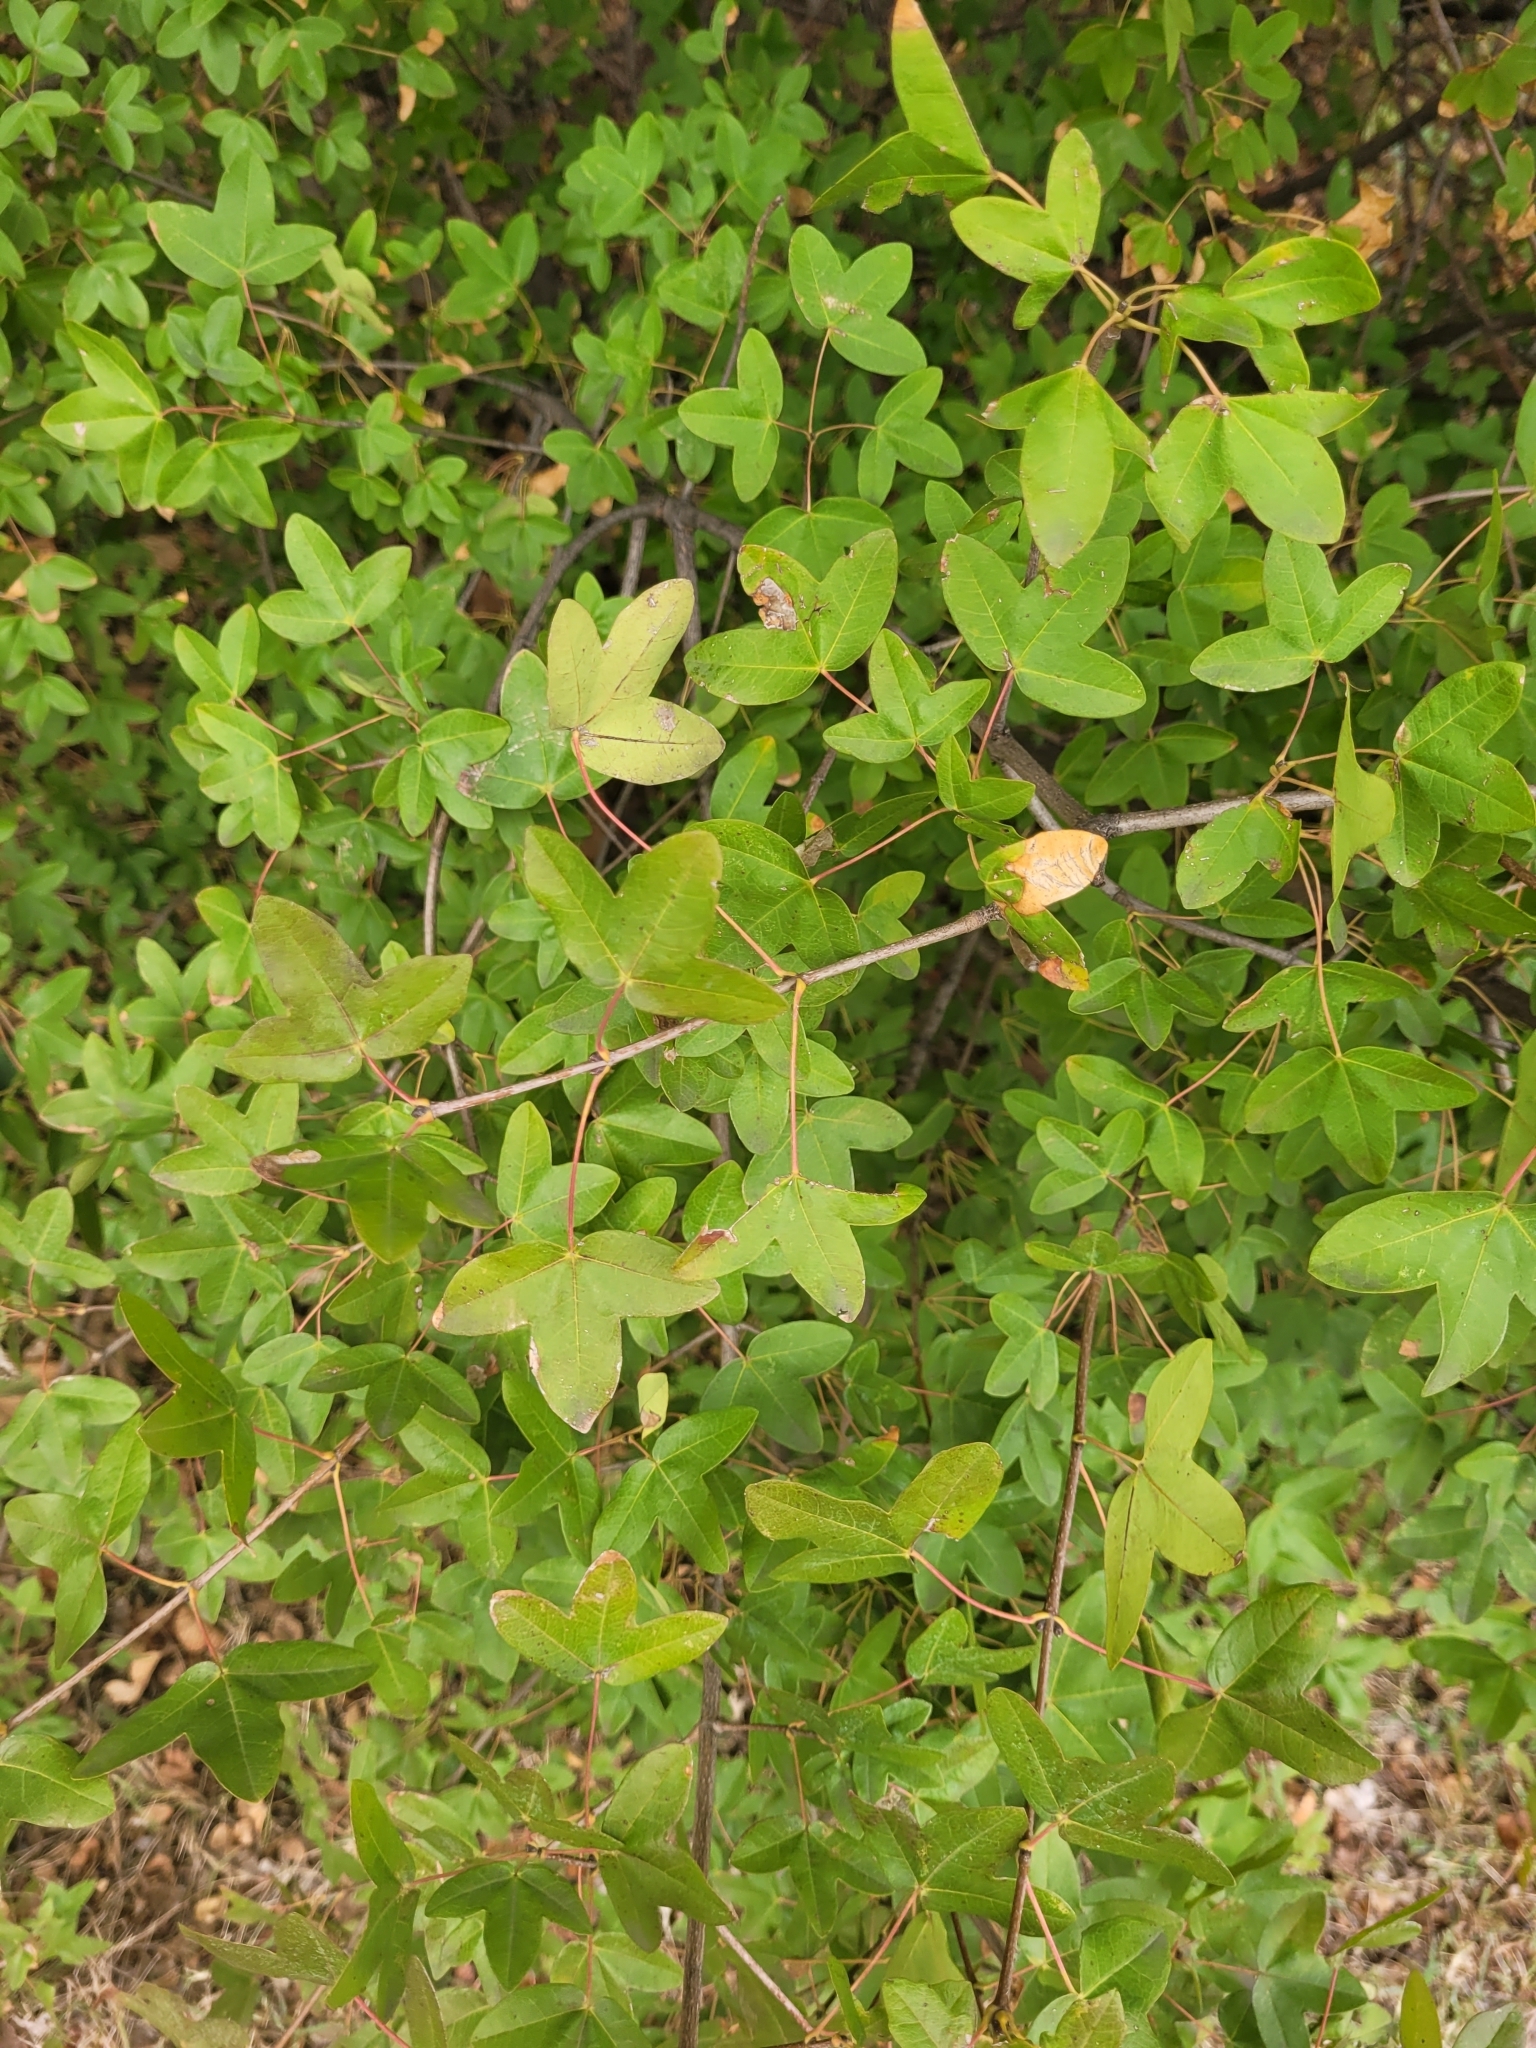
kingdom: Plantae
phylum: Tracheophyta
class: Magnoliopsida
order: Sapindales
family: Sapindaceae
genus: Acer
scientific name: Acer monspessulanum
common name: Montpellier maple
